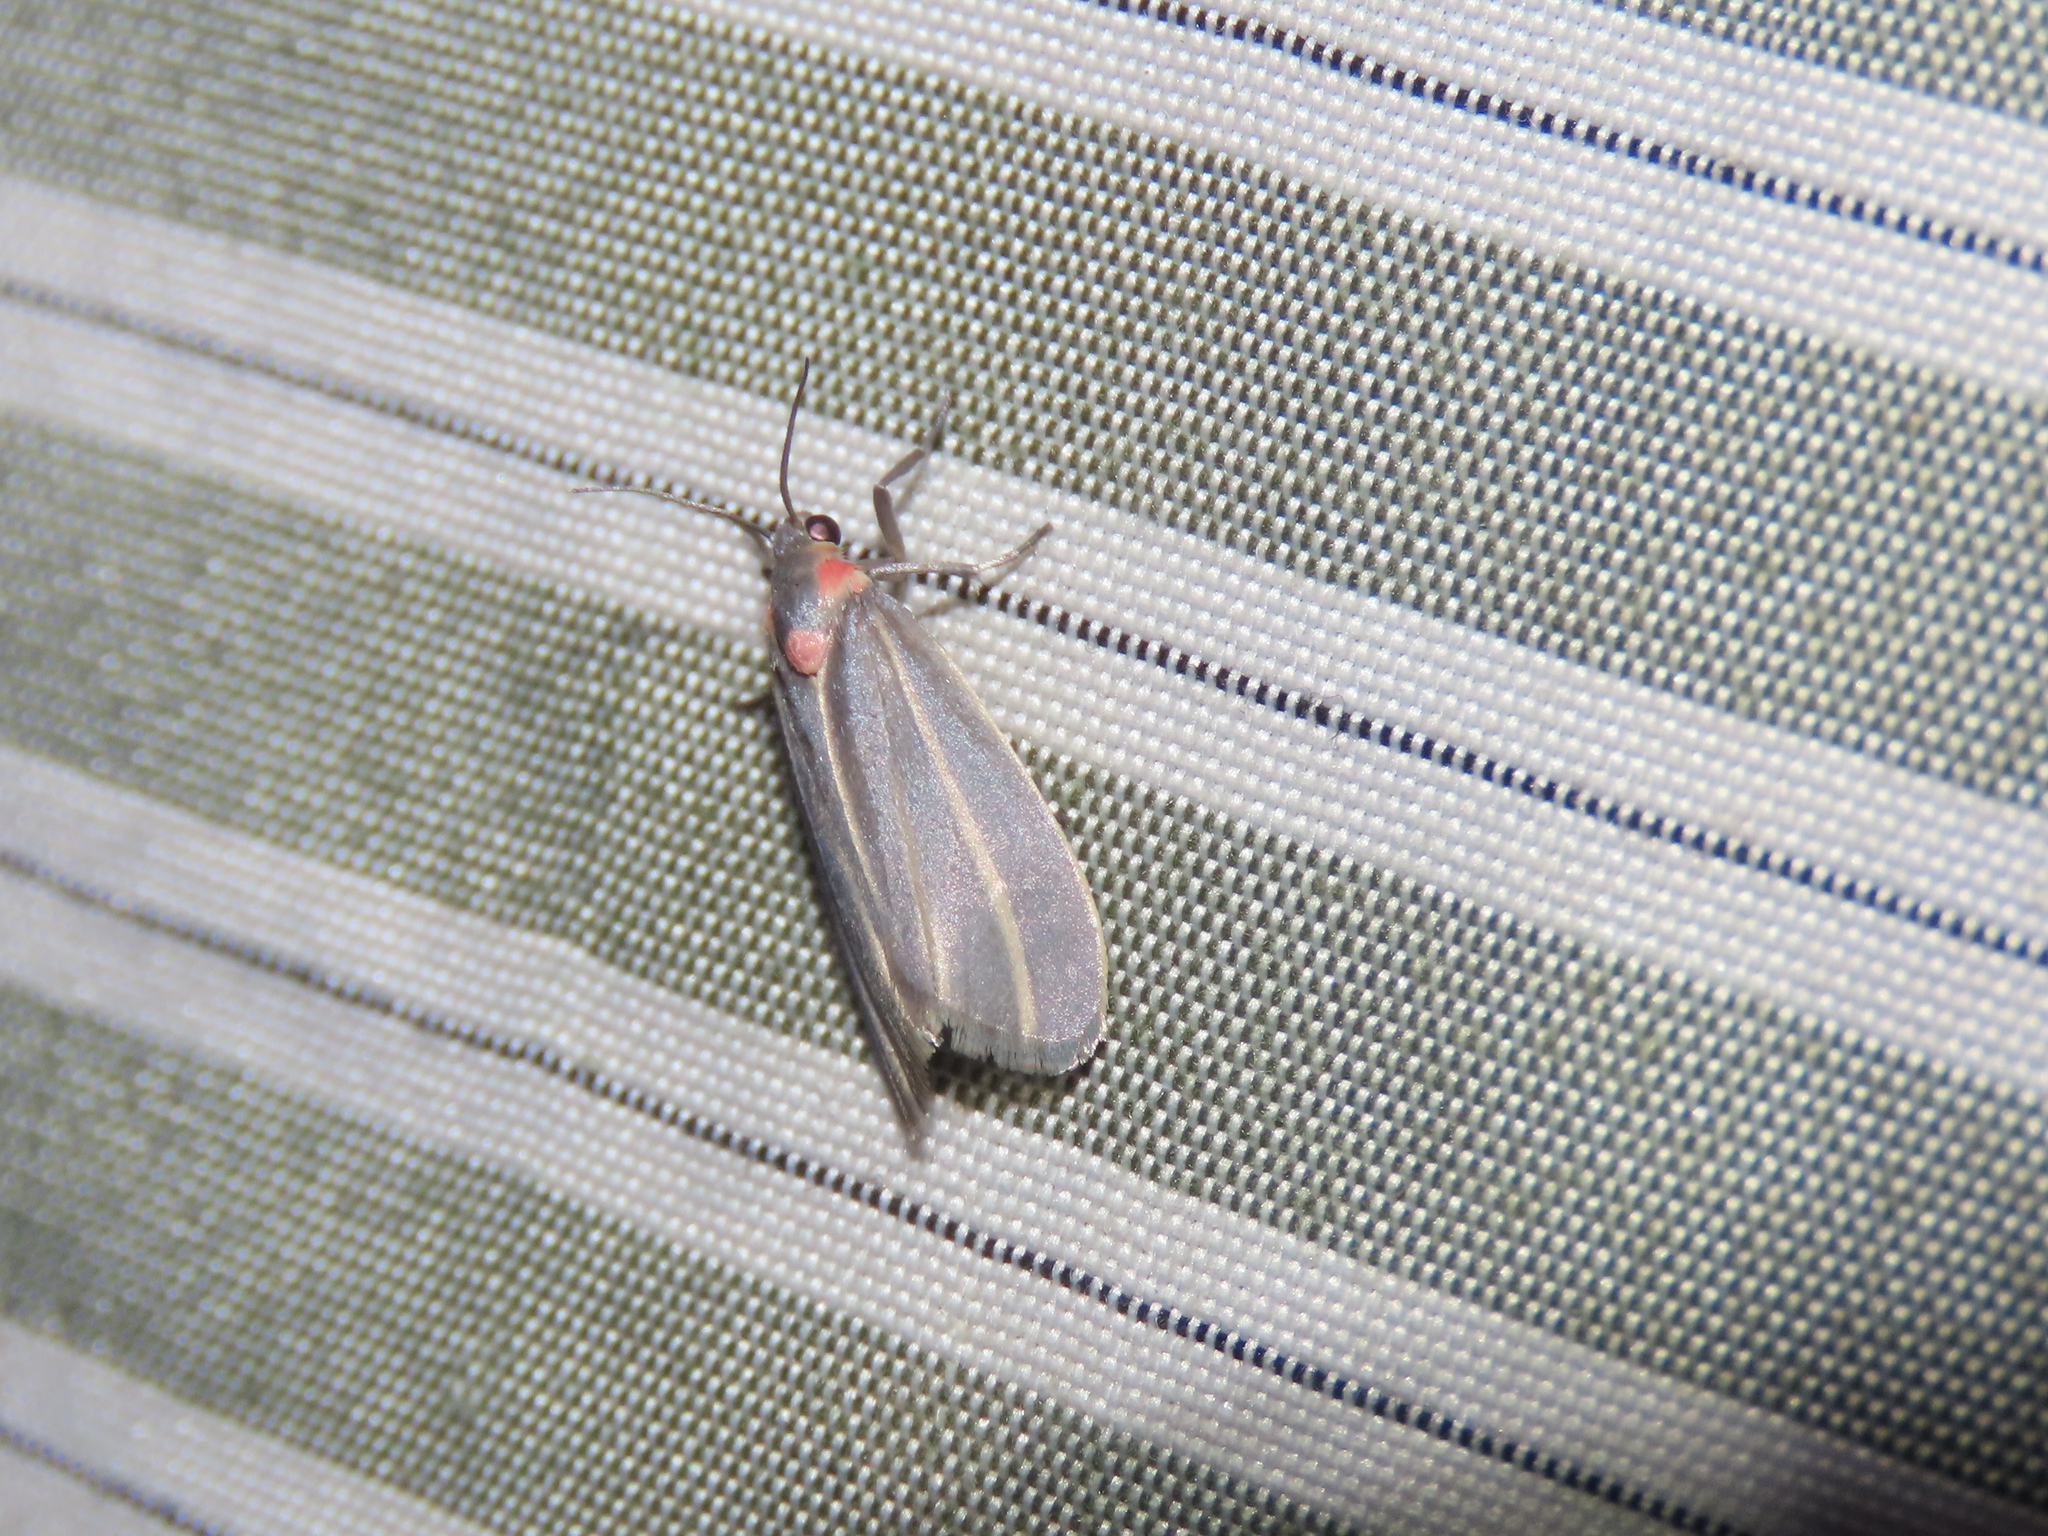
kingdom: Animalia
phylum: Arthropoda
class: Insecta
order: Lepidoptera
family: Erebidae
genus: Haematomis
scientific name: Haematomis uniformis
